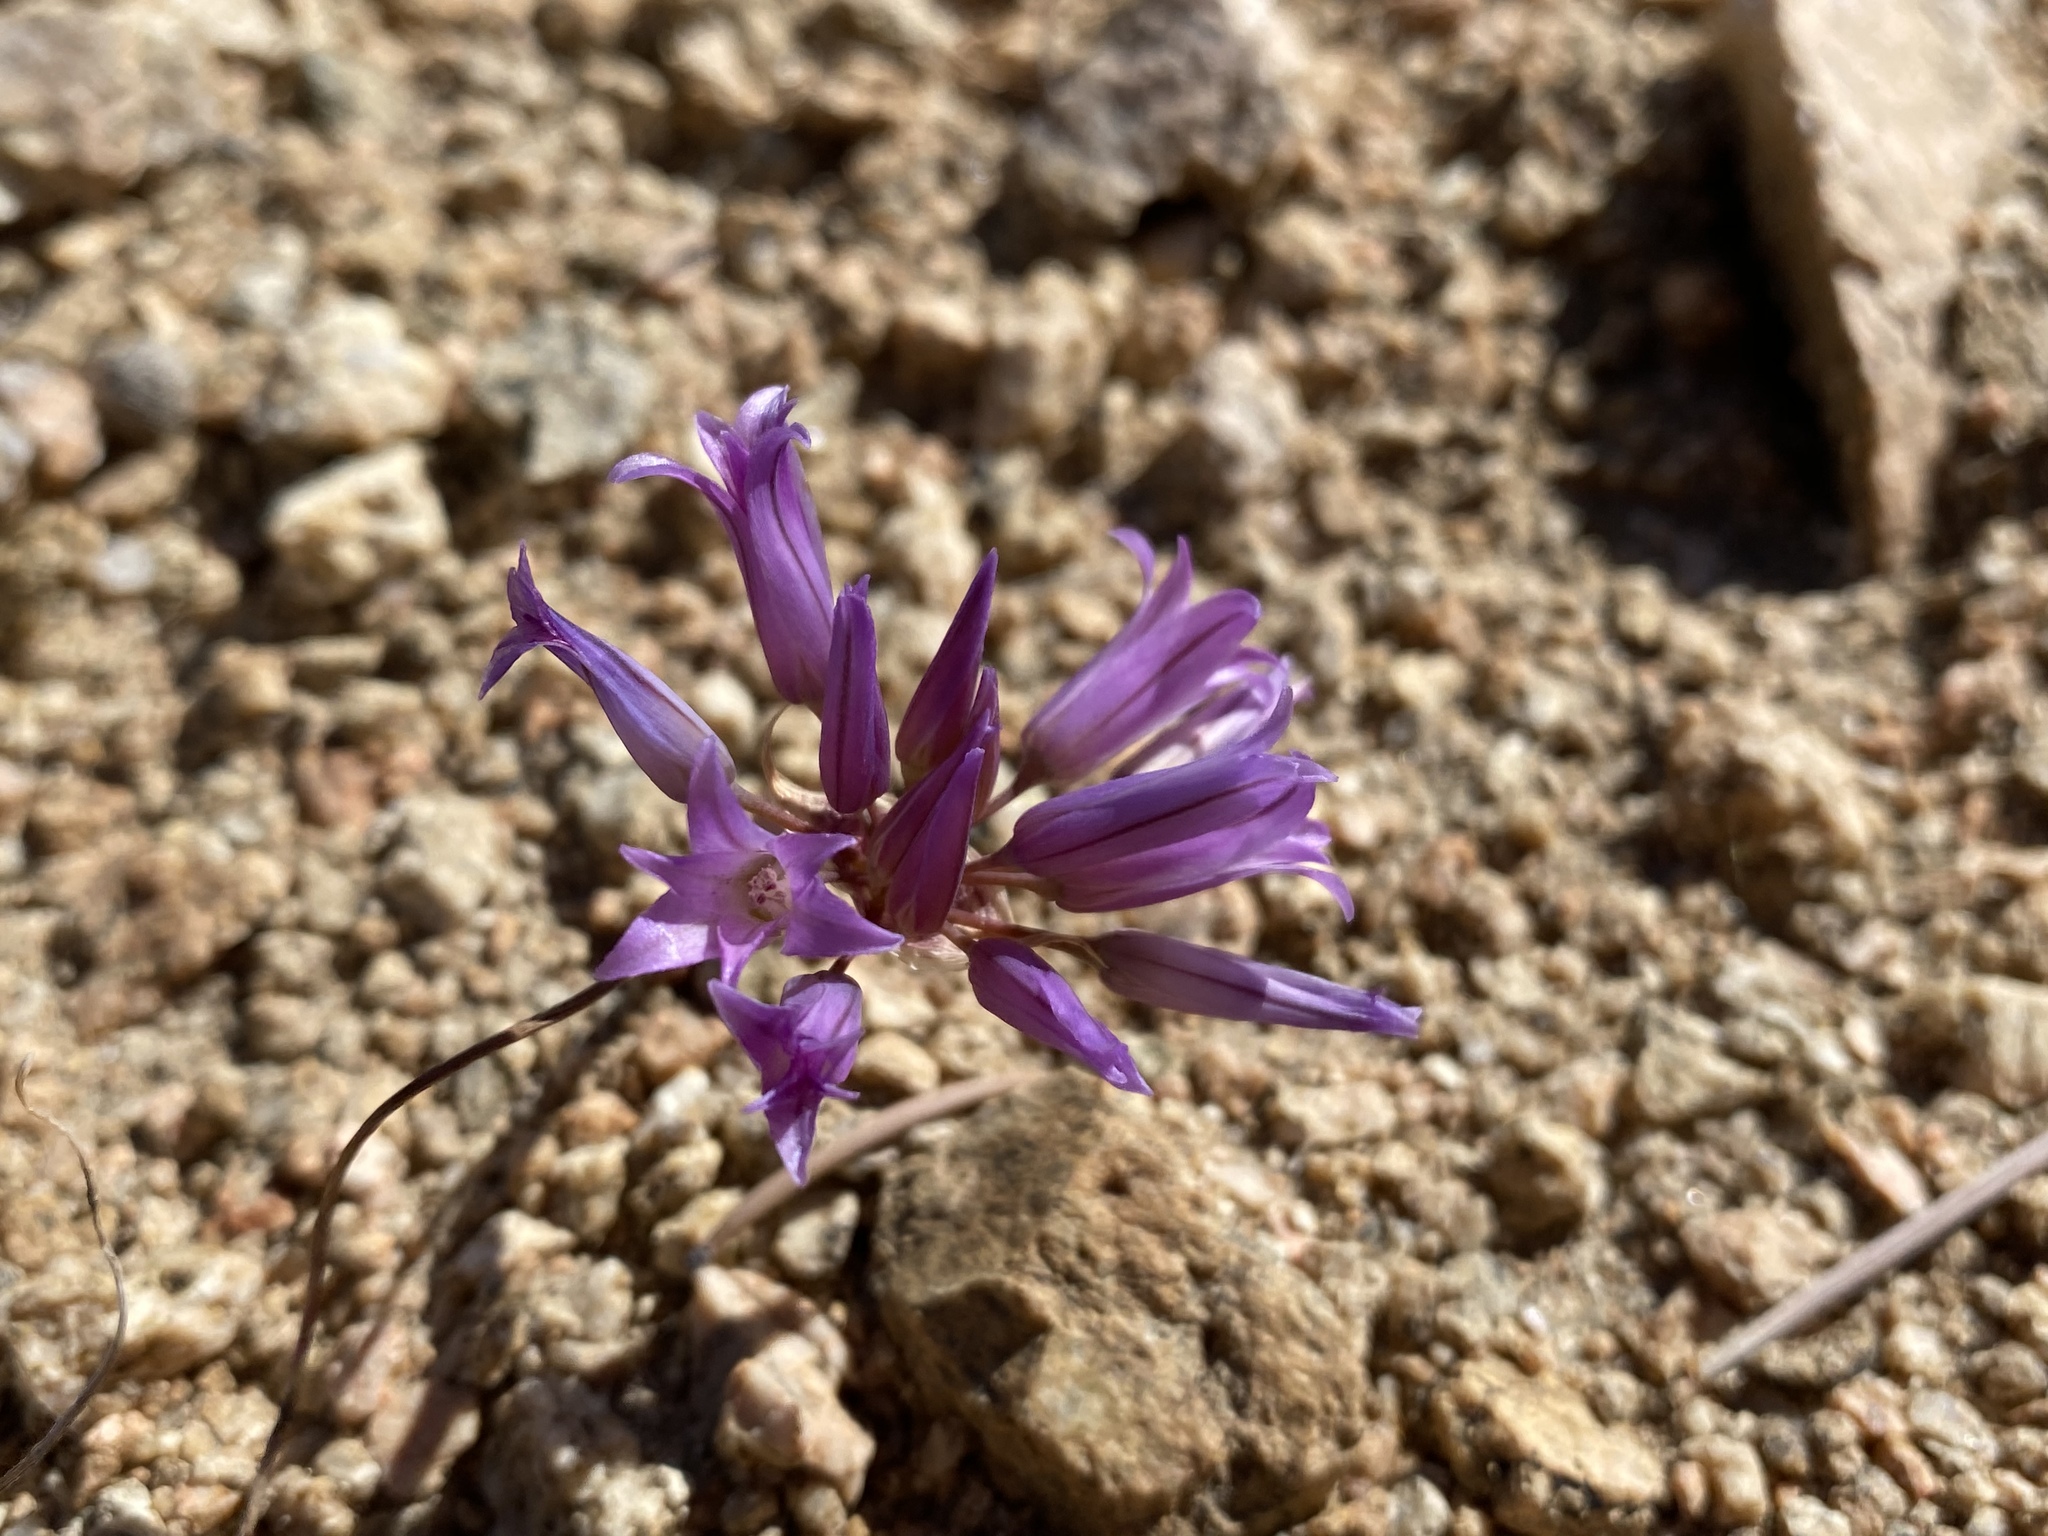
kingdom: Plantae
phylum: Tracheophyta
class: Liliopsida
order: Asparagales
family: Amaryllidaceae
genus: Allium
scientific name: Allium fimbriatum
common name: Fringed onion
